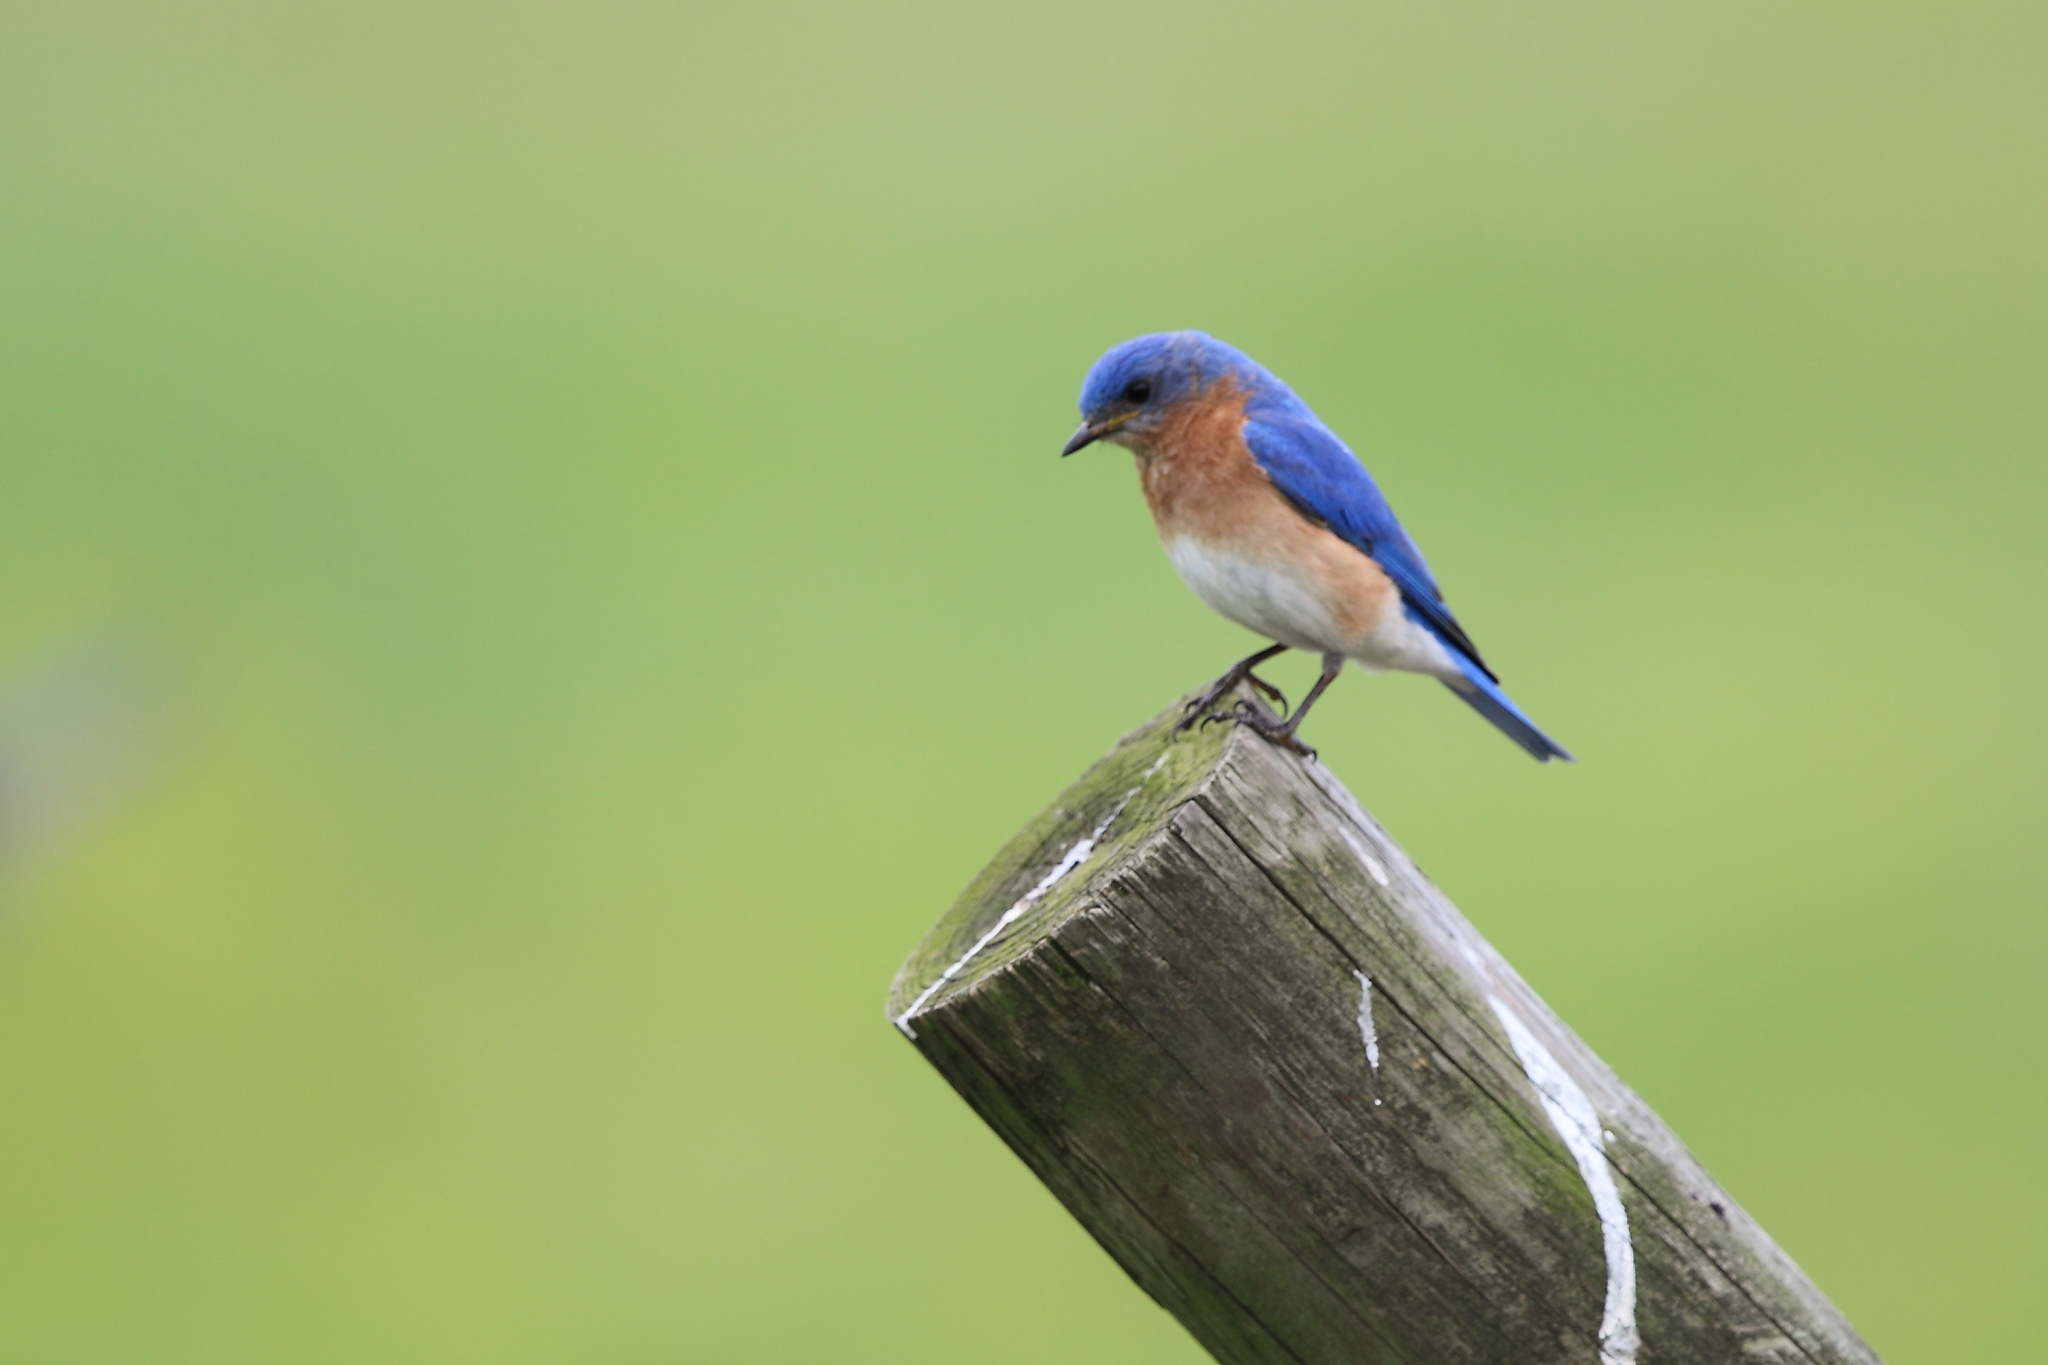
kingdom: Animalia
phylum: Chordata
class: Aves
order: Passeriformes
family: Turdidae
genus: Sialia
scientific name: Sialia sialis
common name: Eastern bluebird
